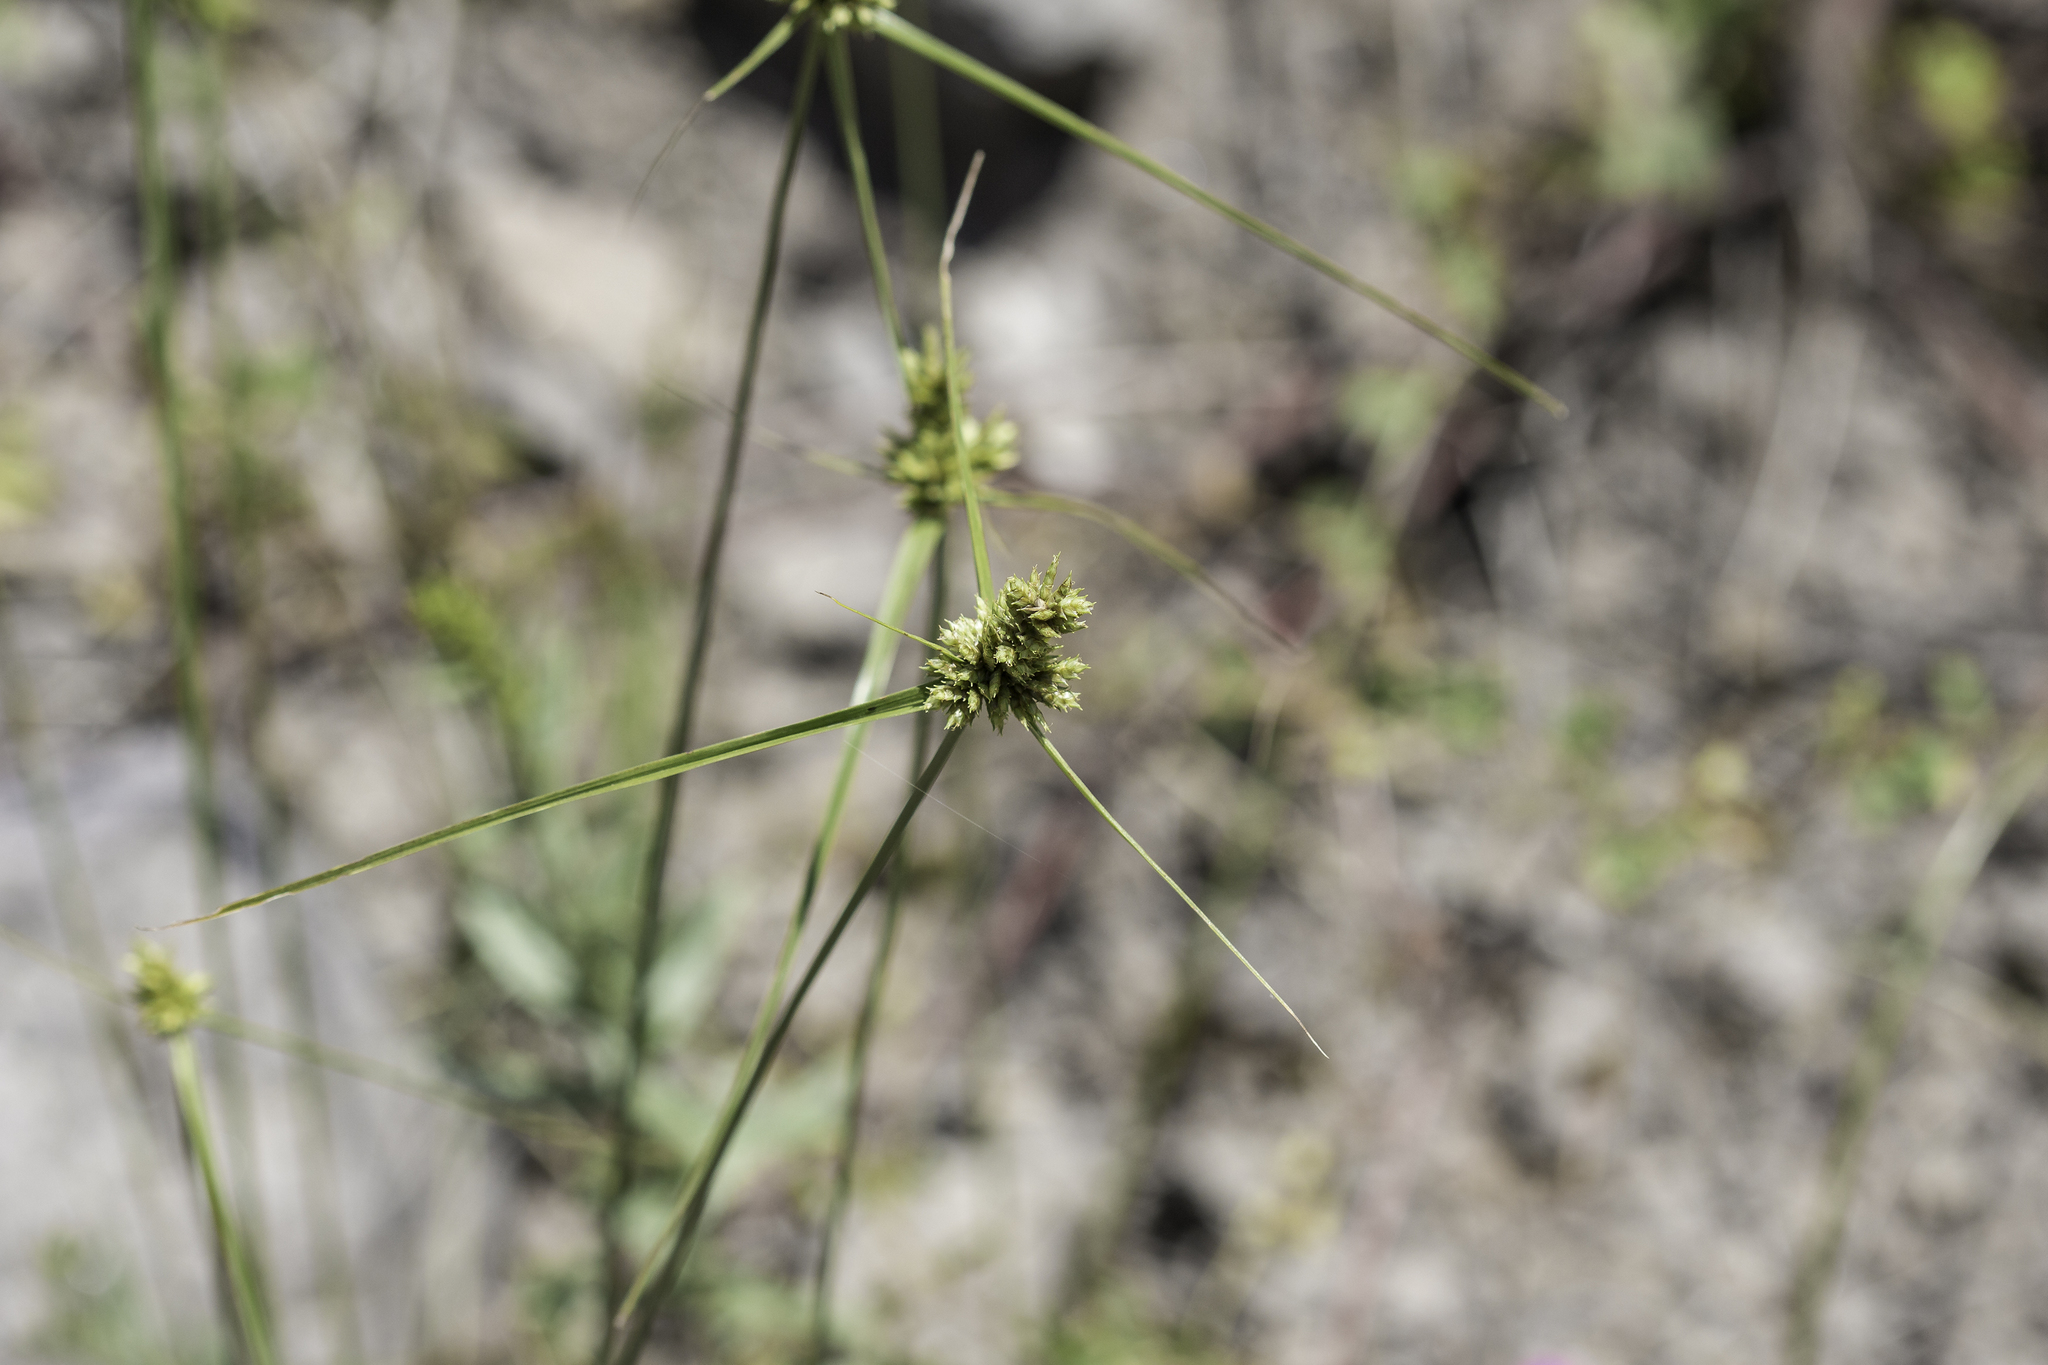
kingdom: Plantae
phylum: Tracheophyta
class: Liliopsida
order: Poales
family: Cyperaceae
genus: Cyperus
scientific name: Cyperus fendlerianus
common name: Fendler flat sedge
